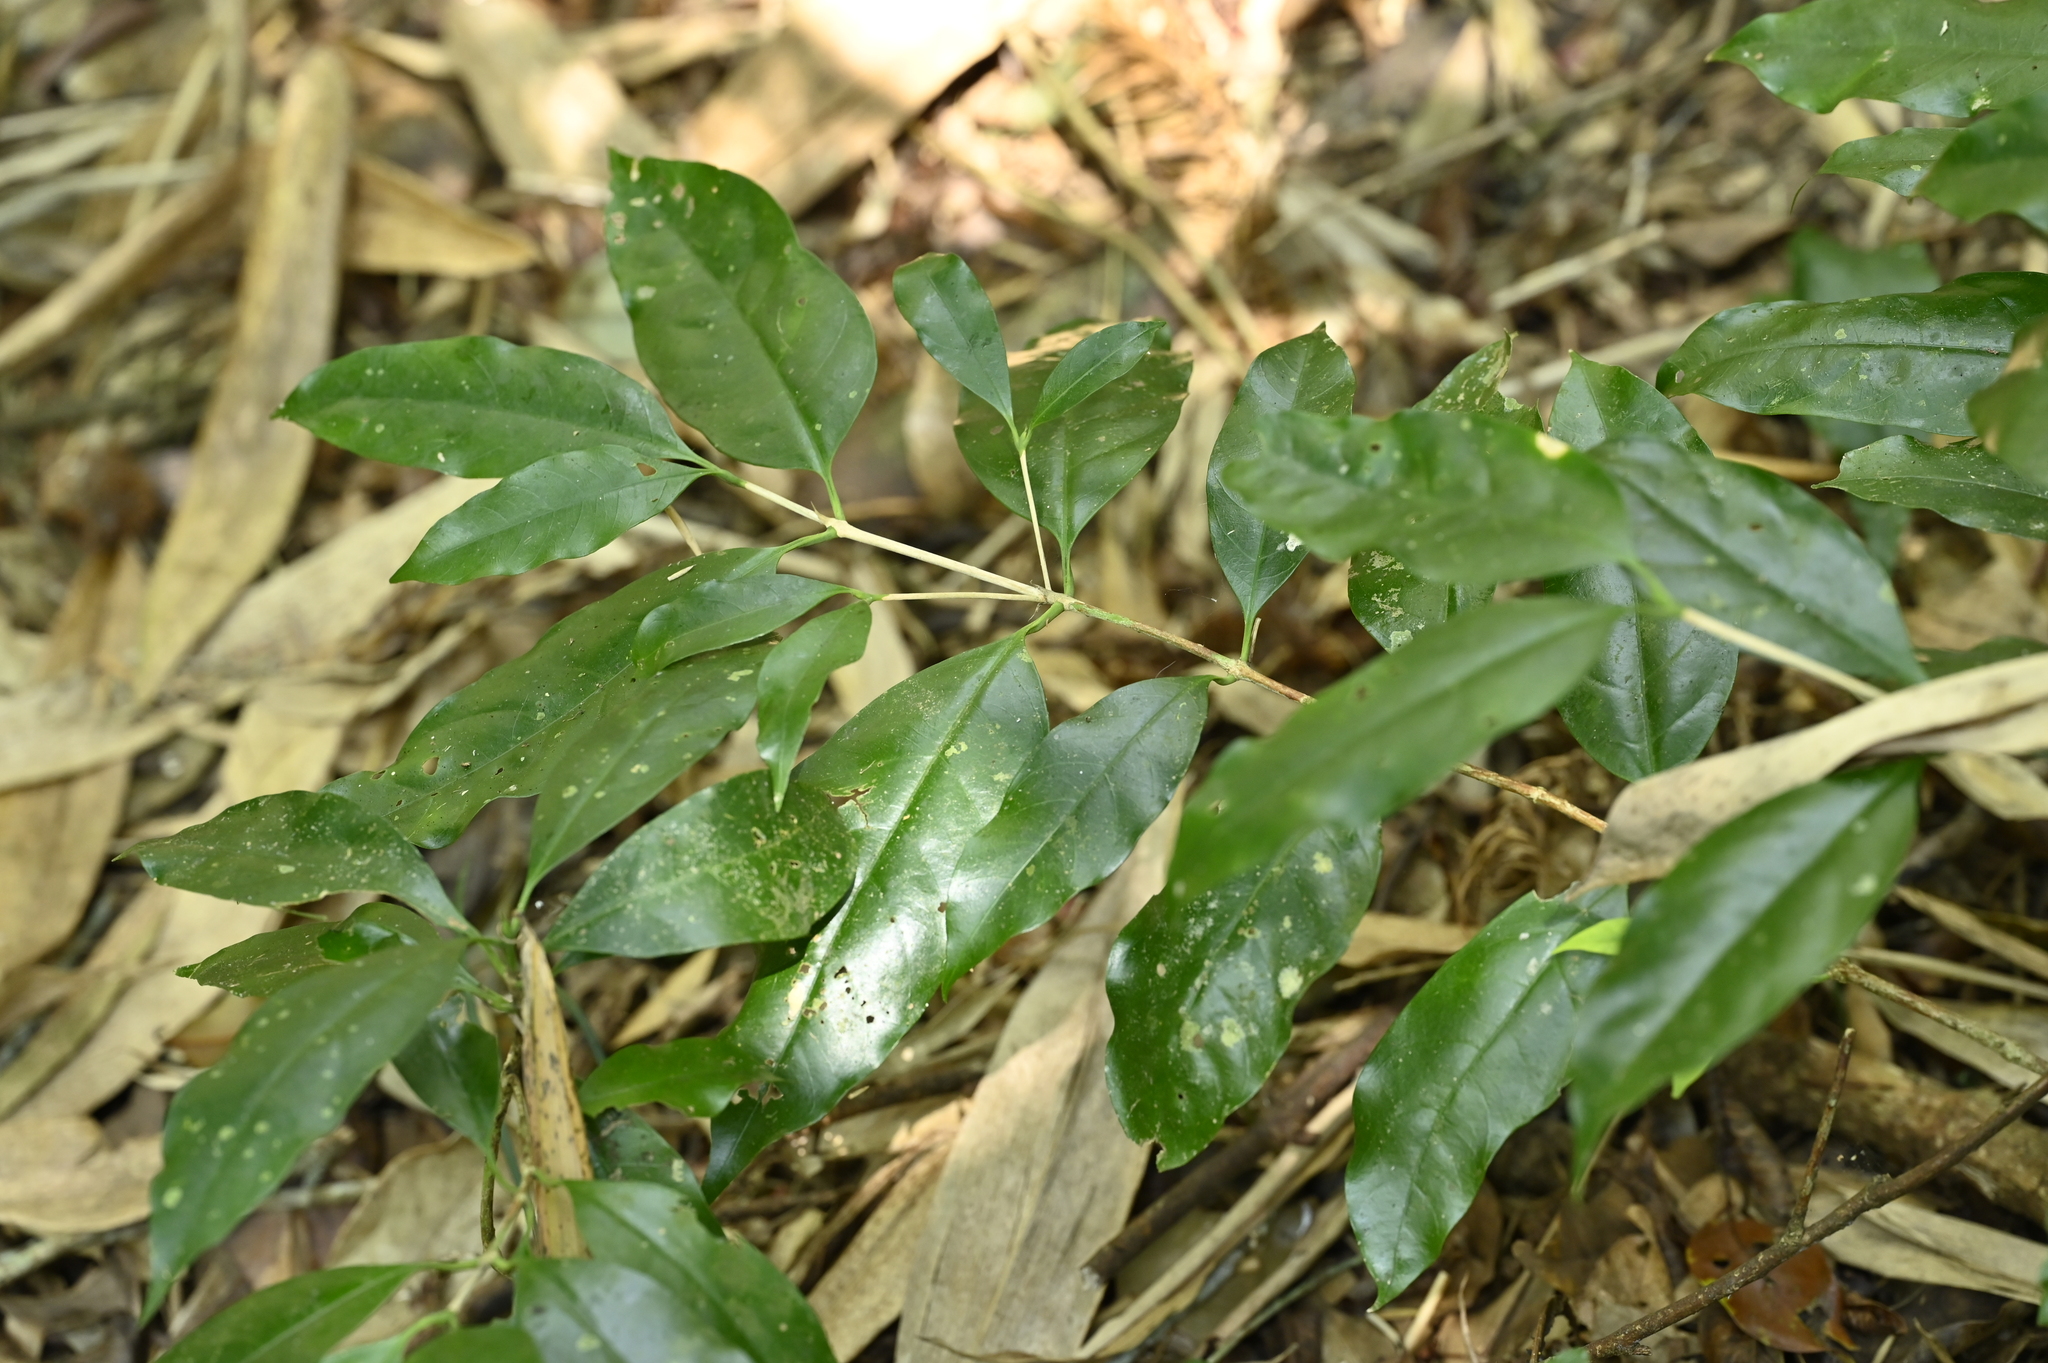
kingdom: Plantae
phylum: Tracheophyta
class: Magnoliopsida
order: Gentianales
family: Rubiaceae
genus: Diplospora
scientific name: Diplospora dubia
